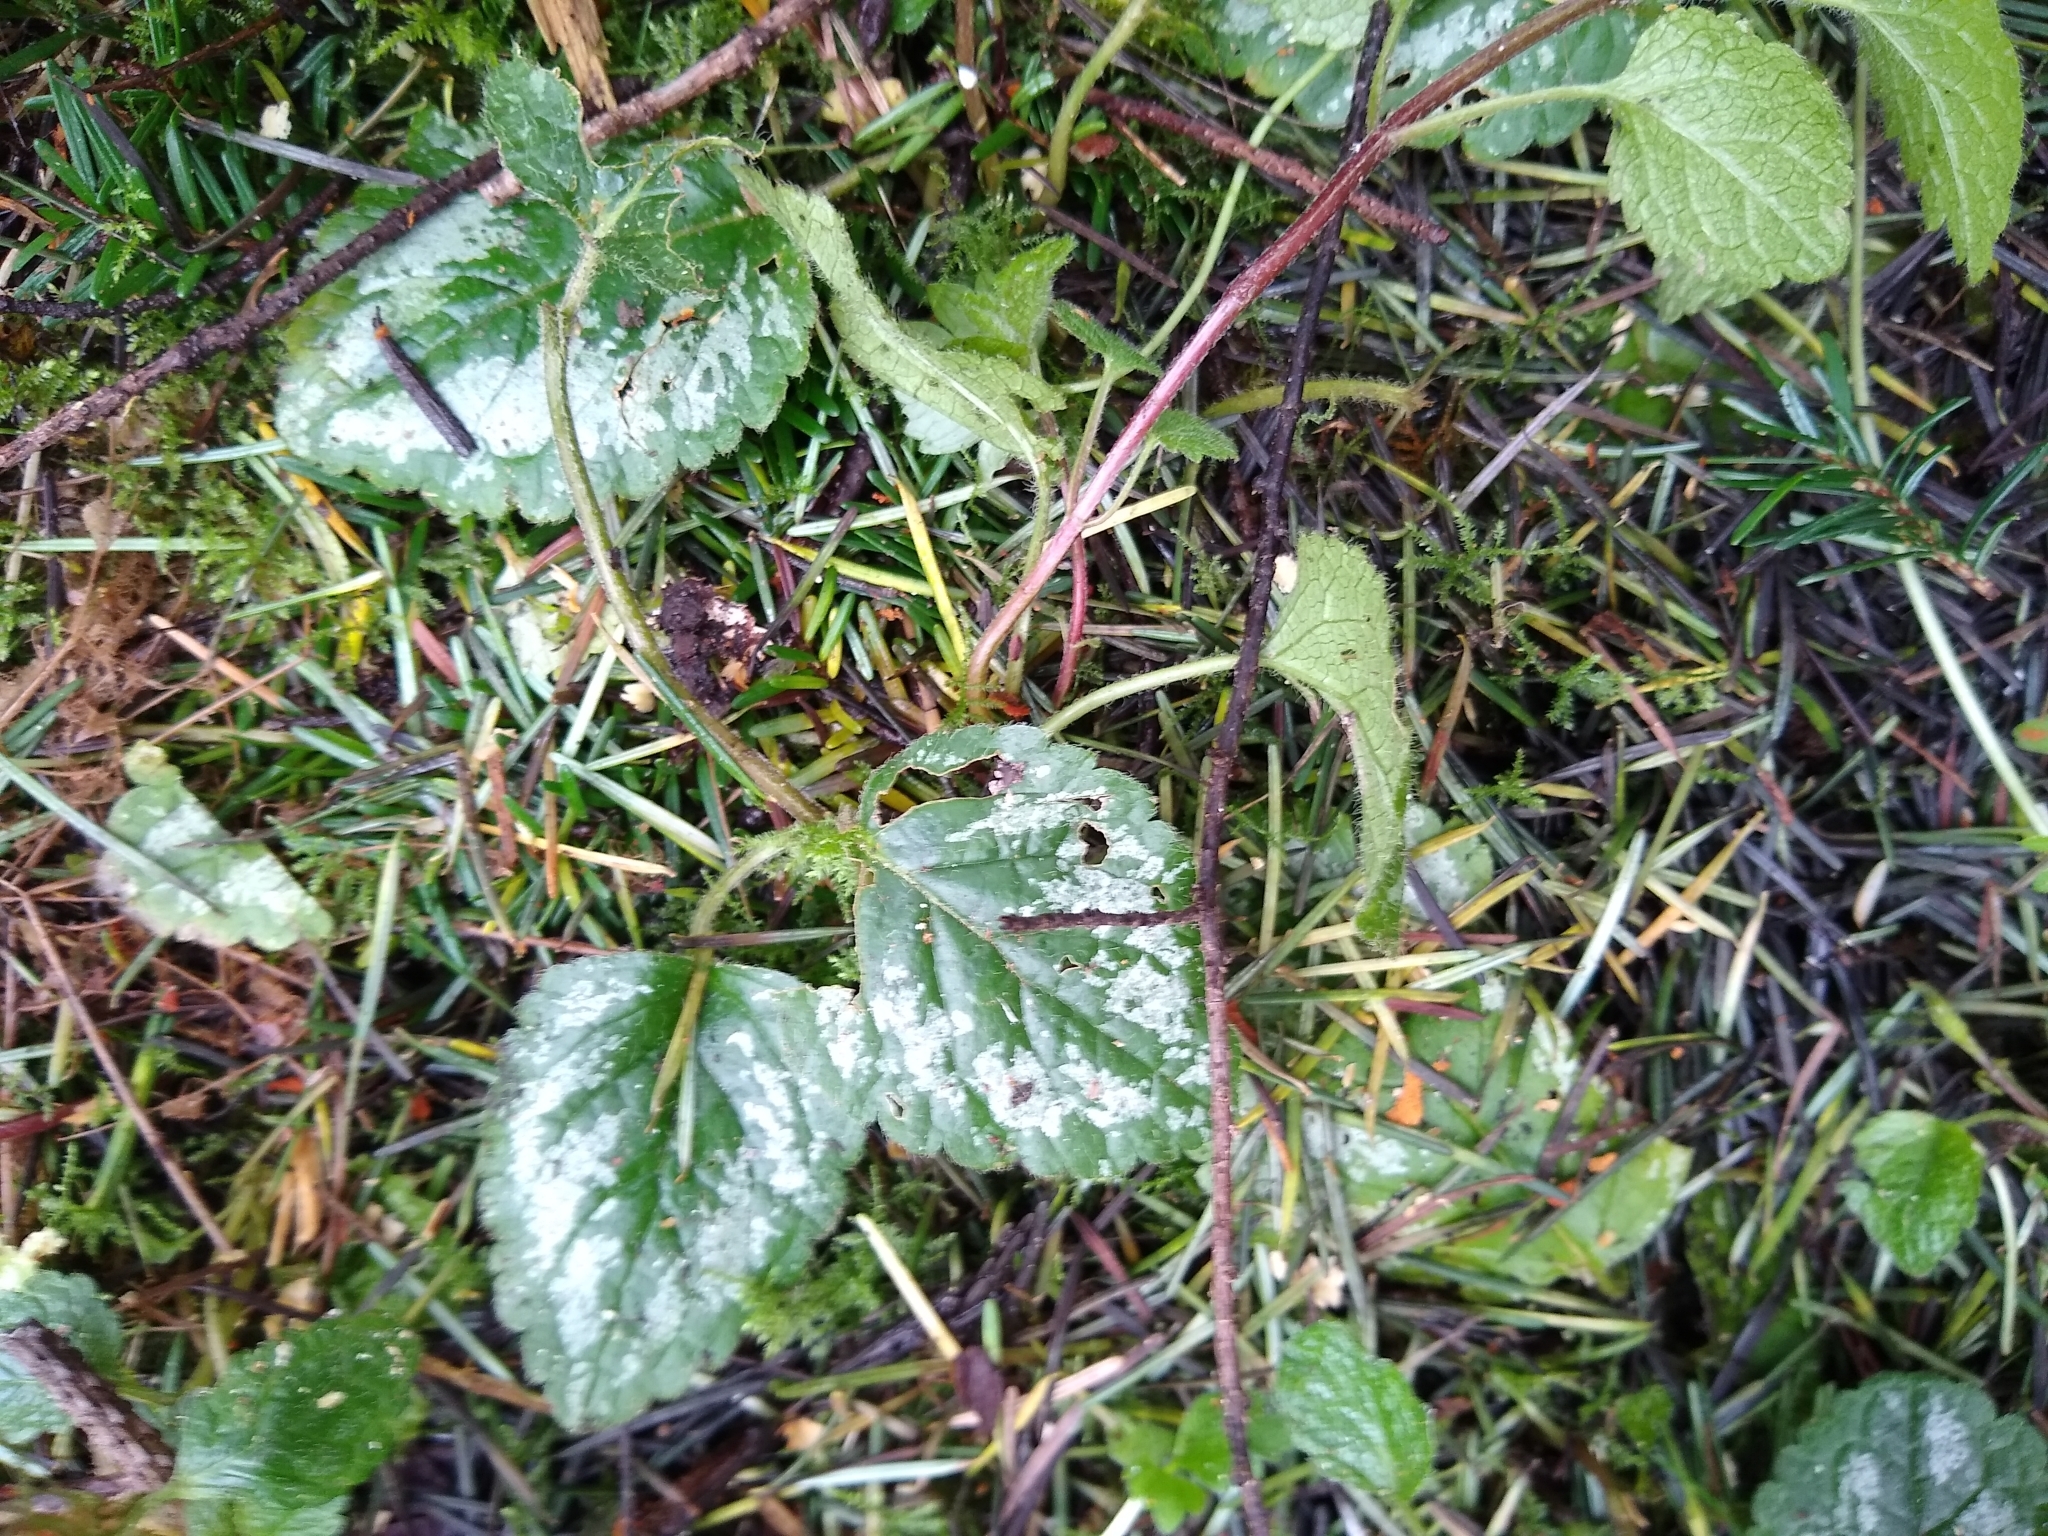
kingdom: Plantae
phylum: Tracheophyta
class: Magnoliopsida
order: Lamiales
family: Lamiaceae
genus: Lamium
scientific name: Lamium galeobdolon
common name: Yellow archangel
